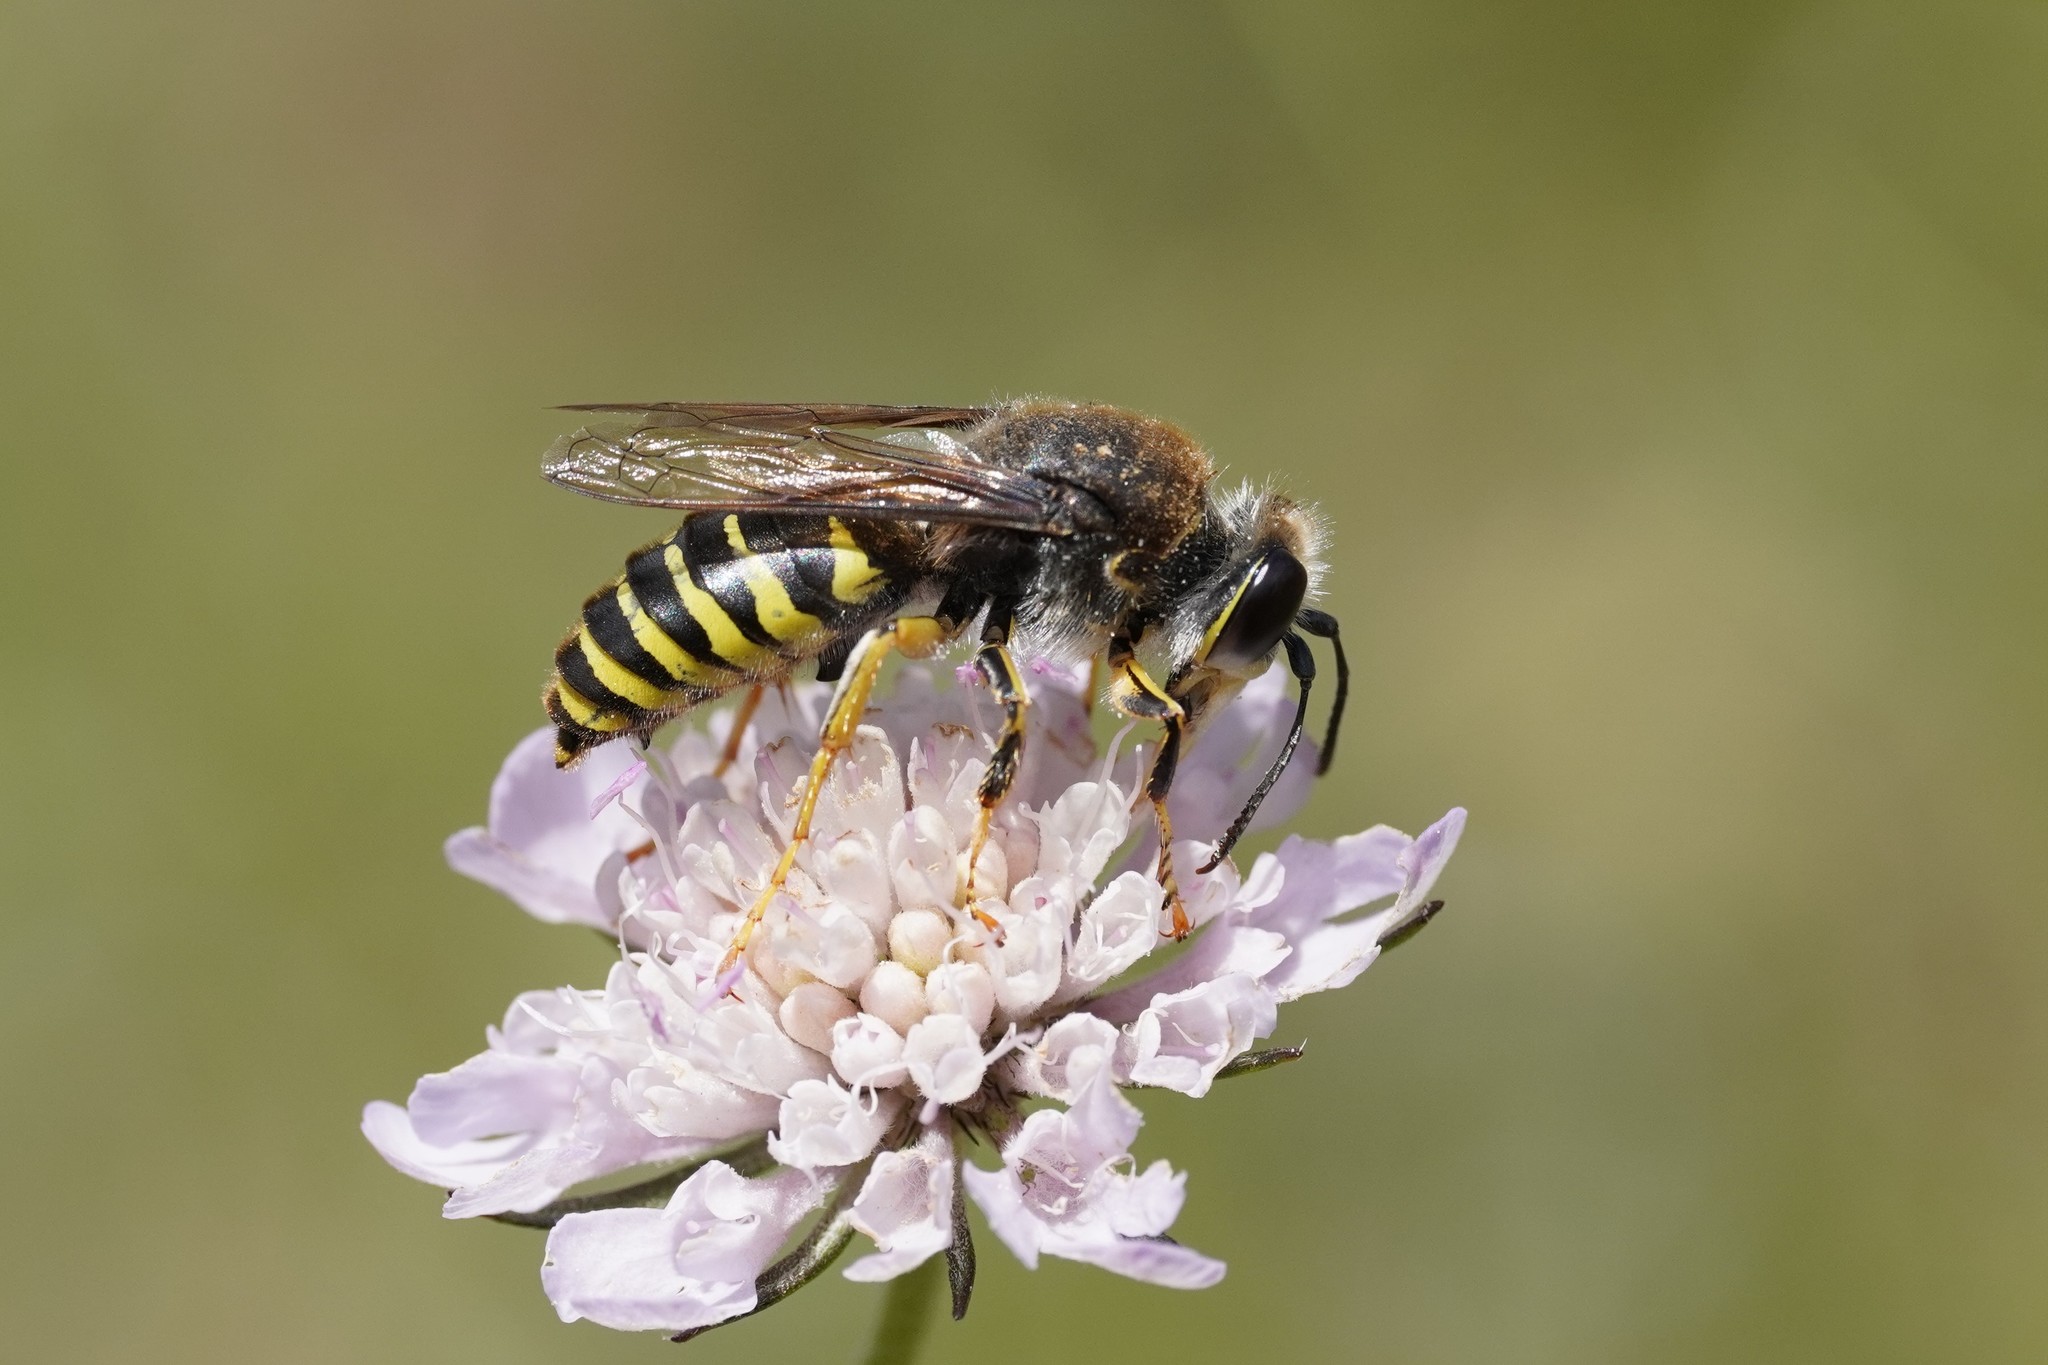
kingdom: Animalia
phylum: Arthropoda
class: Insecta
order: Hymenoptera
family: Crabronidae
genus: Bembix
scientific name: Bembix tarsata
